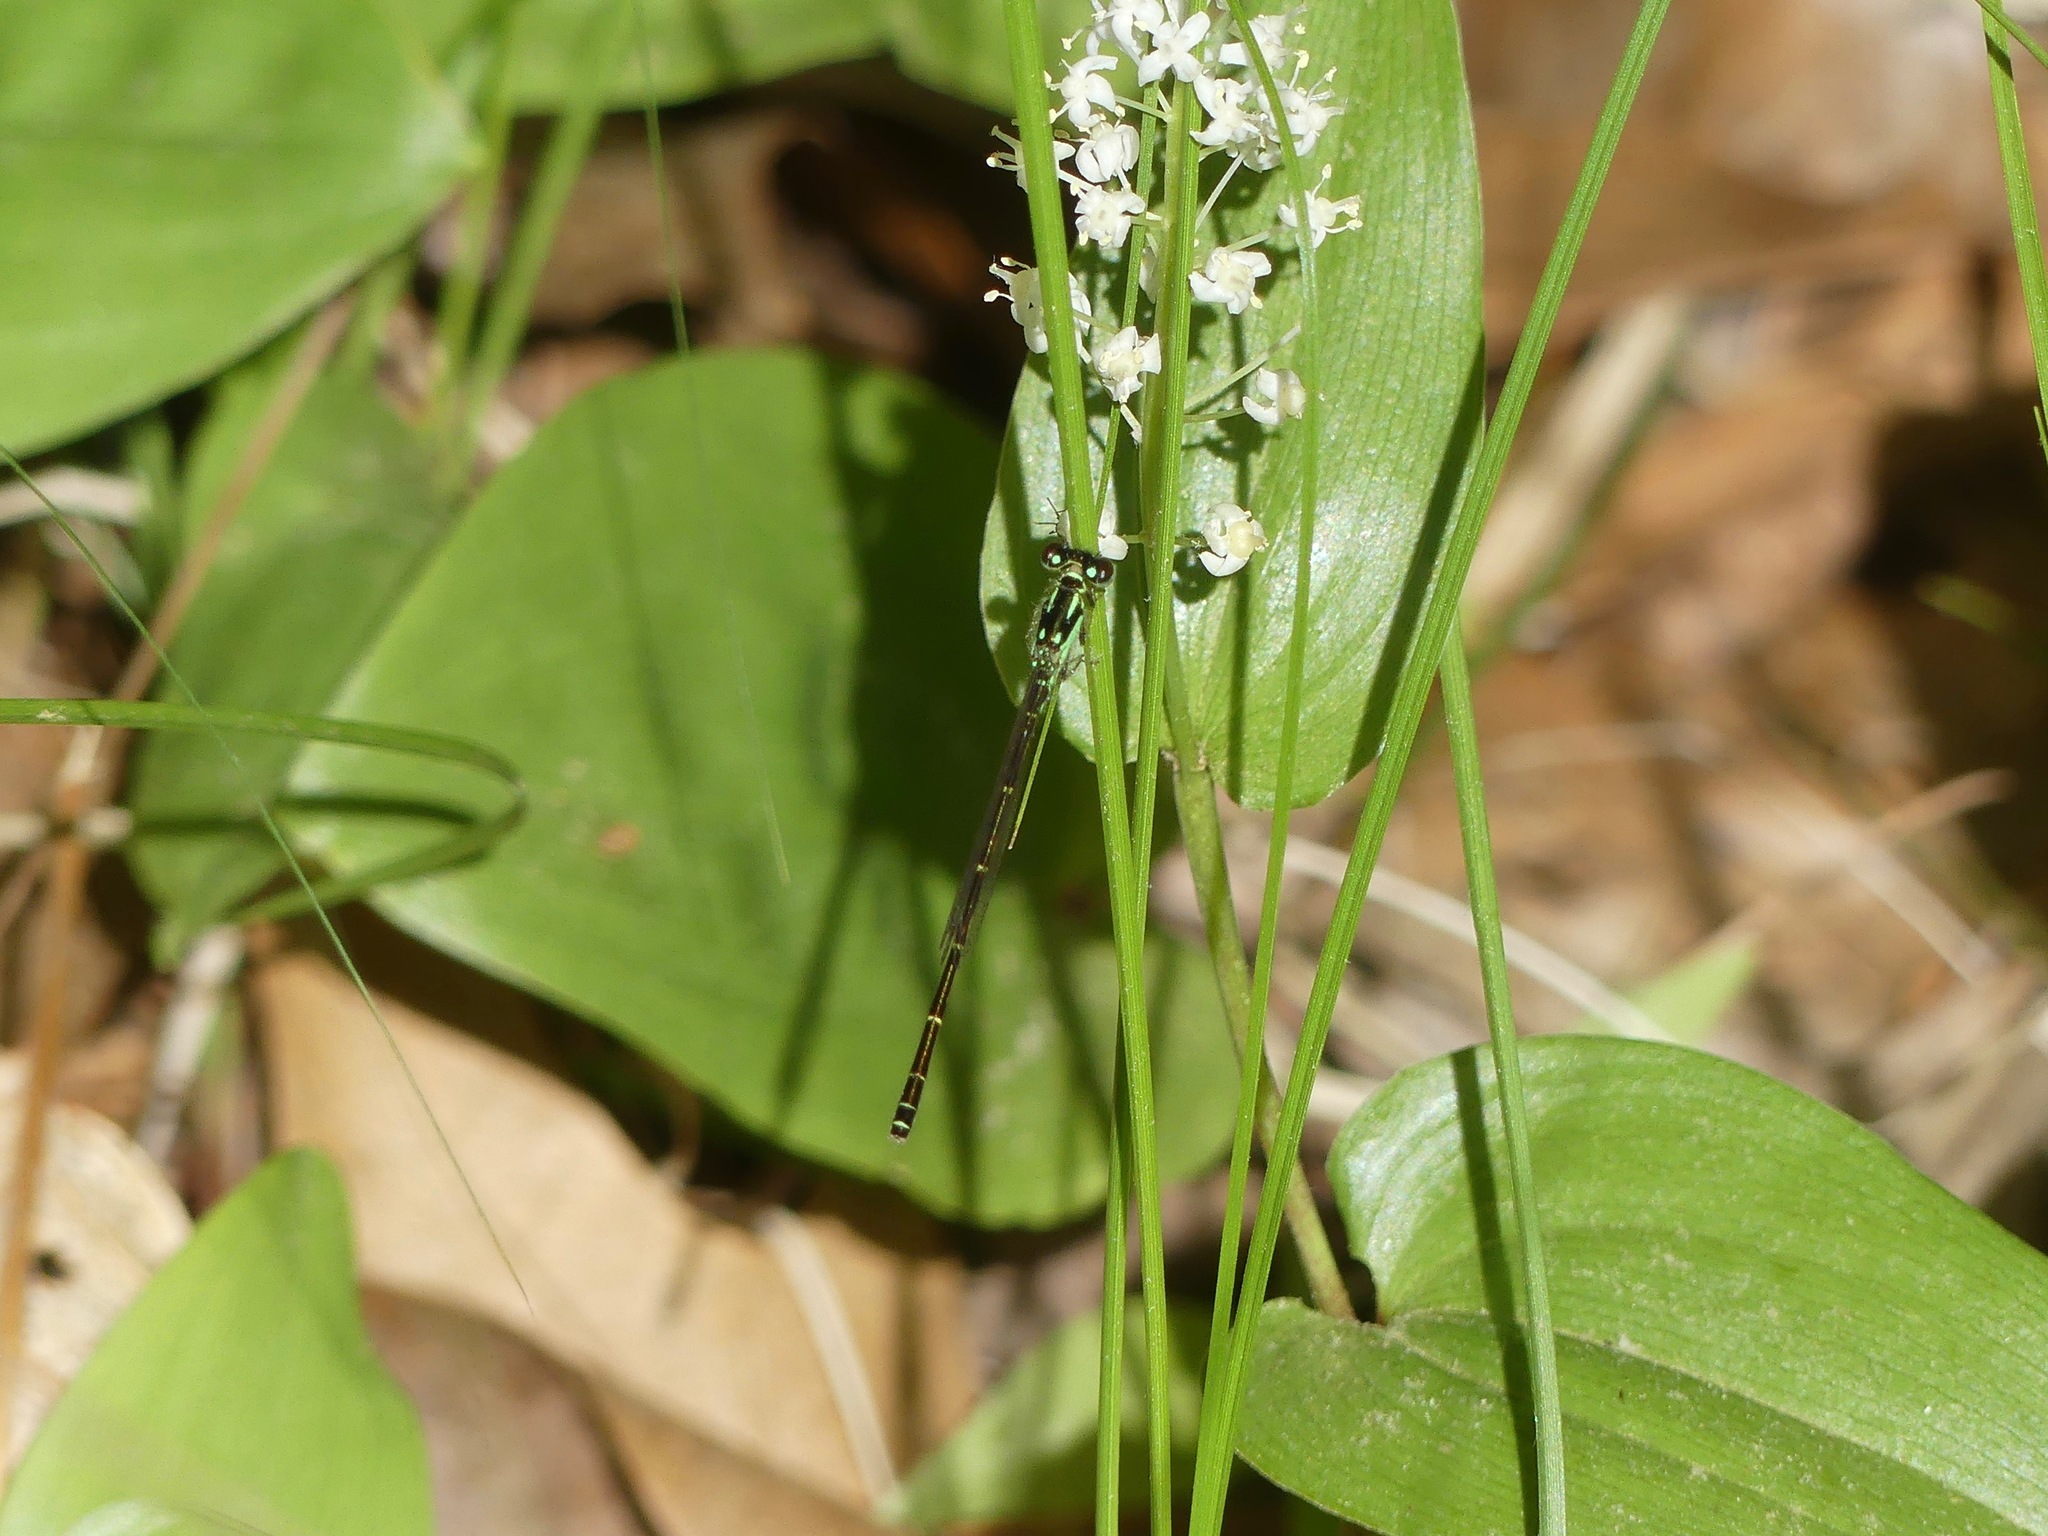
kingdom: Animalia
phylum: Arthropoda
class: Insecta
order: Odonata
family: Coenagrionidae
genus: Ischnura
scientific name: Ischnura posita
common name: Fragile forktail
